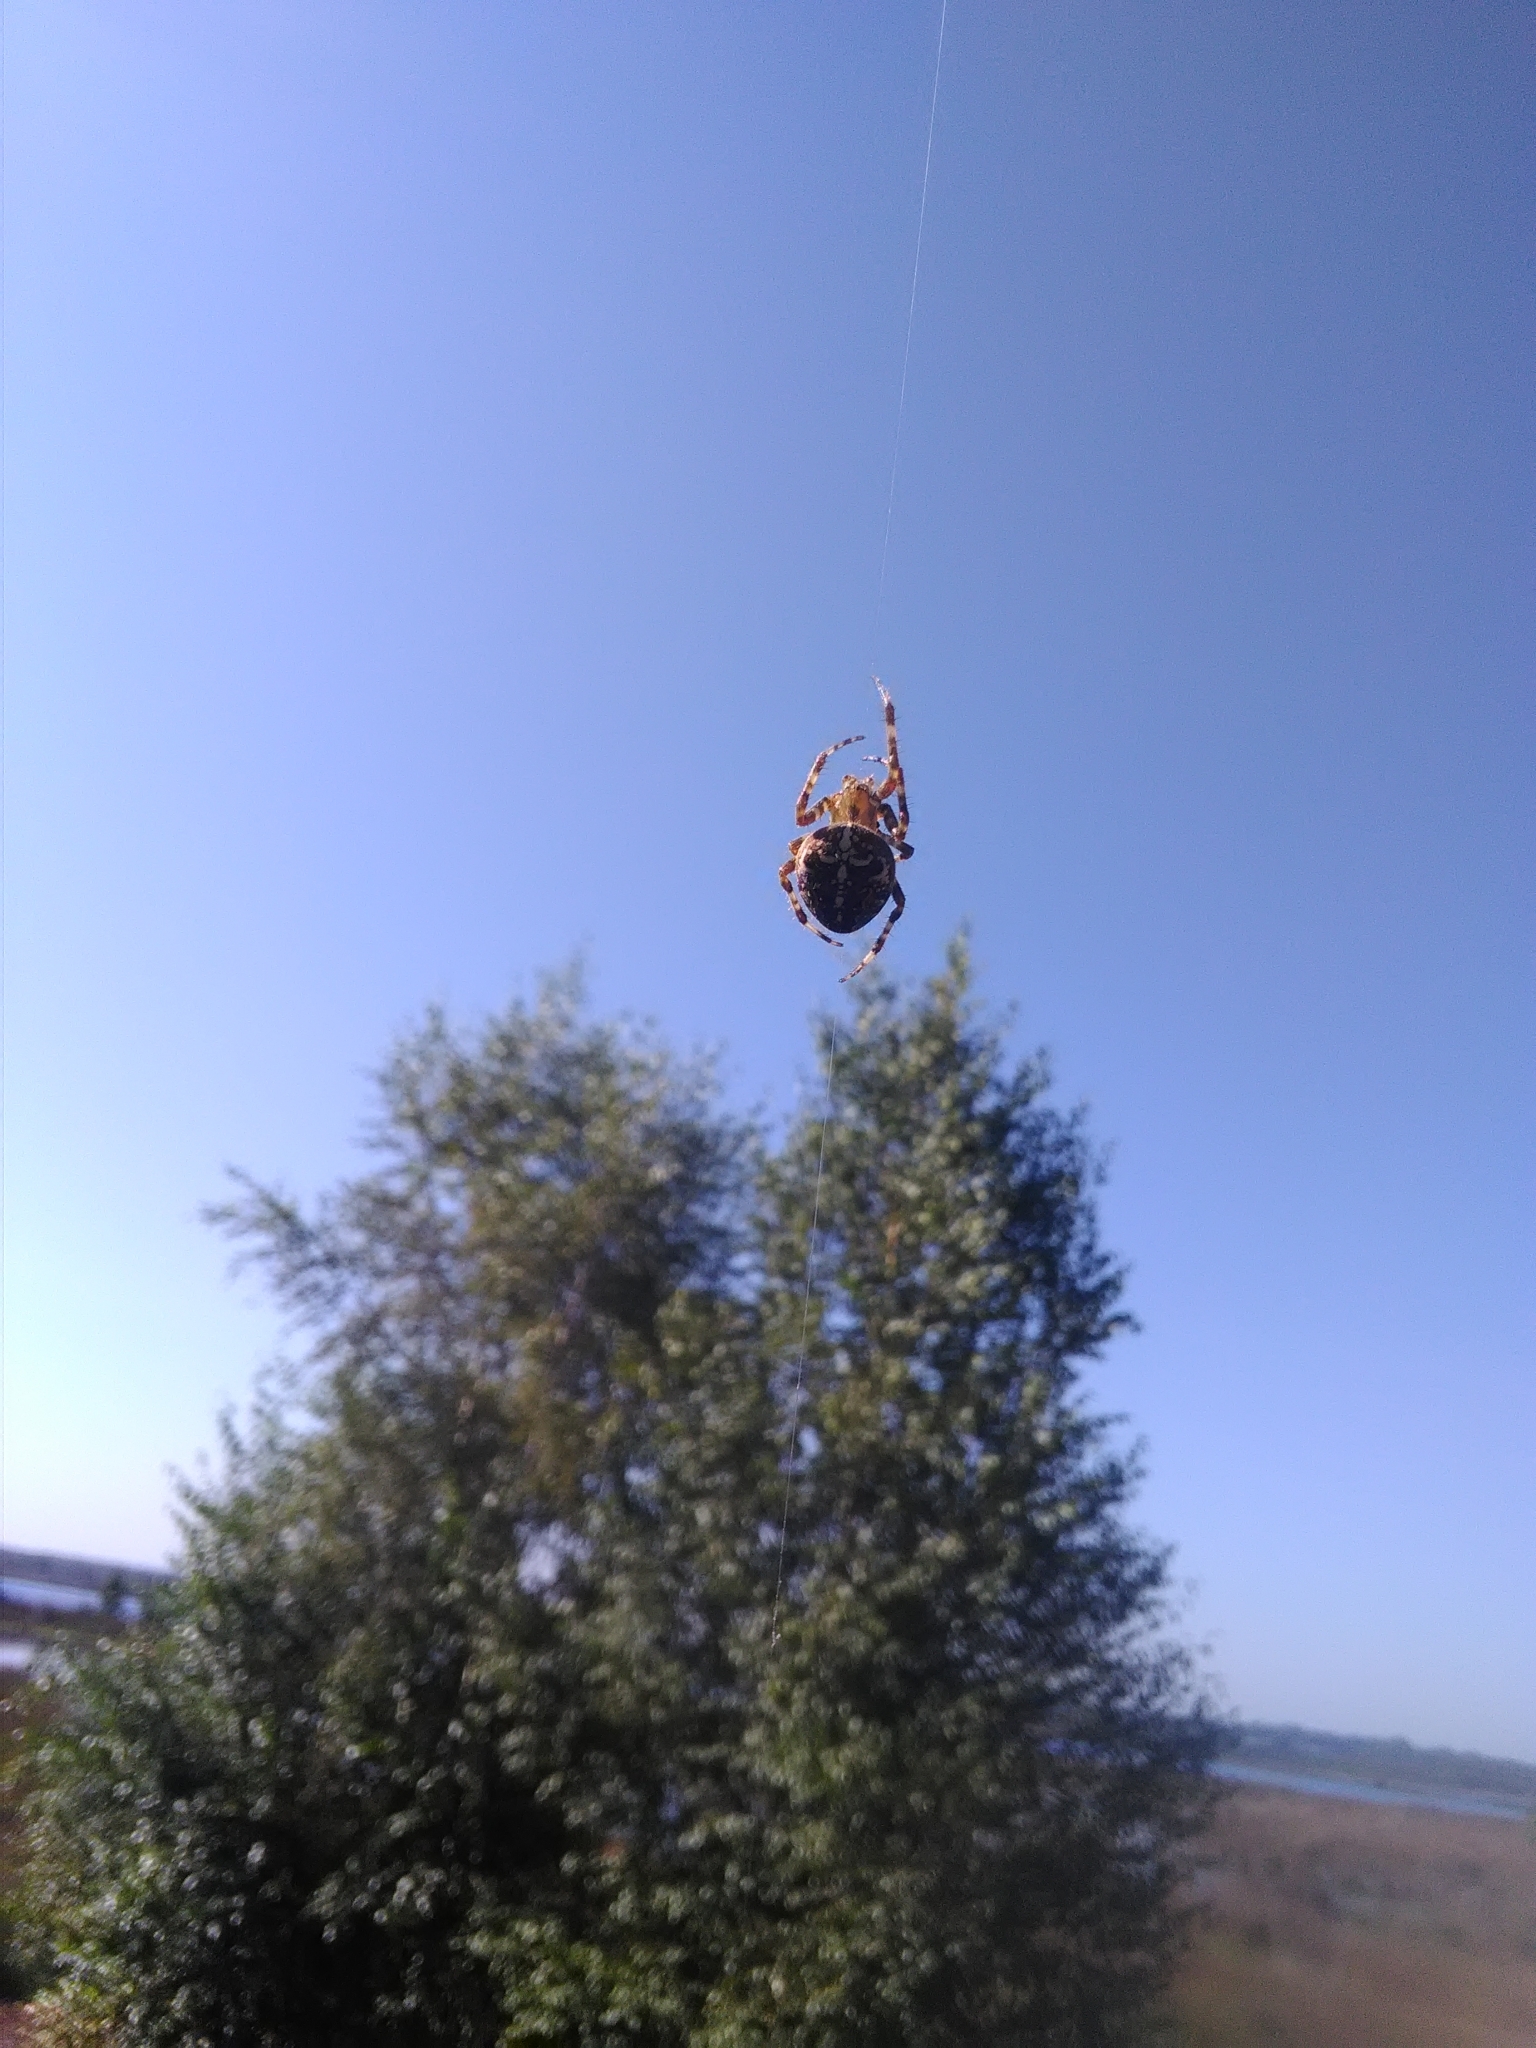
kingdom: Animalia
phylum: Arthropoda
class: Arachnida
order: Araneae
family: Araneidae
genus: Araneus
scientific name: Araneus diadematus
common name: Cross orbweaver
